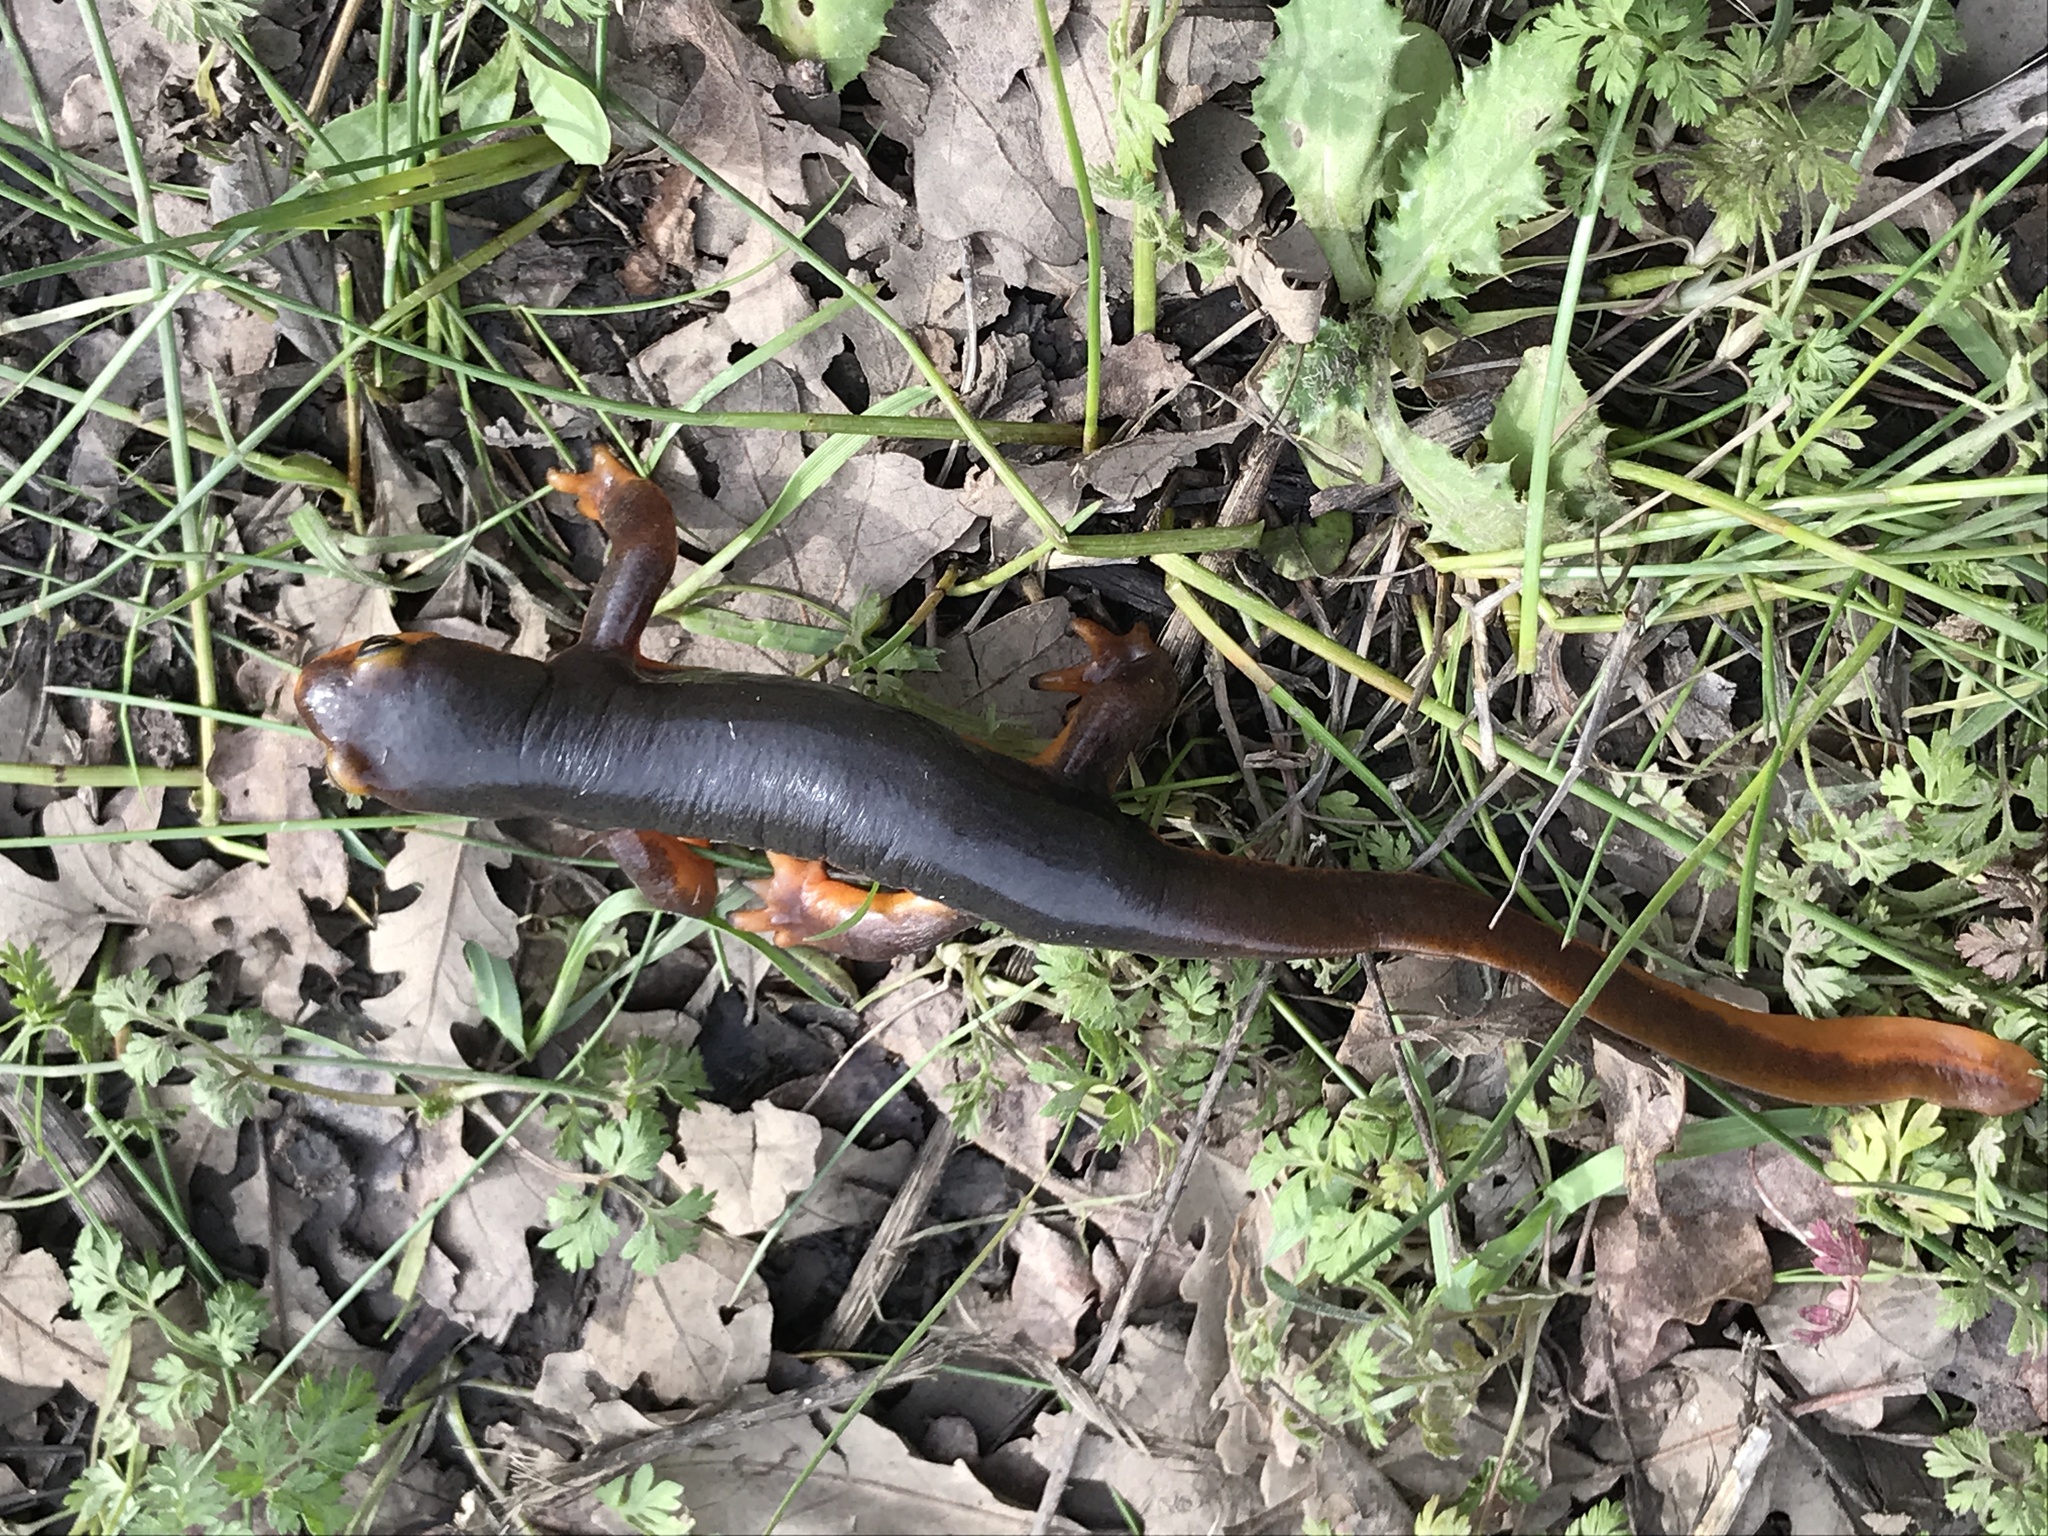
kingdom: Animalia
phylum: Chordata
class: Amphibia
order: Caudata
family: Salamandridae
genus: Taricha
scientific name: Taricha torosa
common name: California newt
